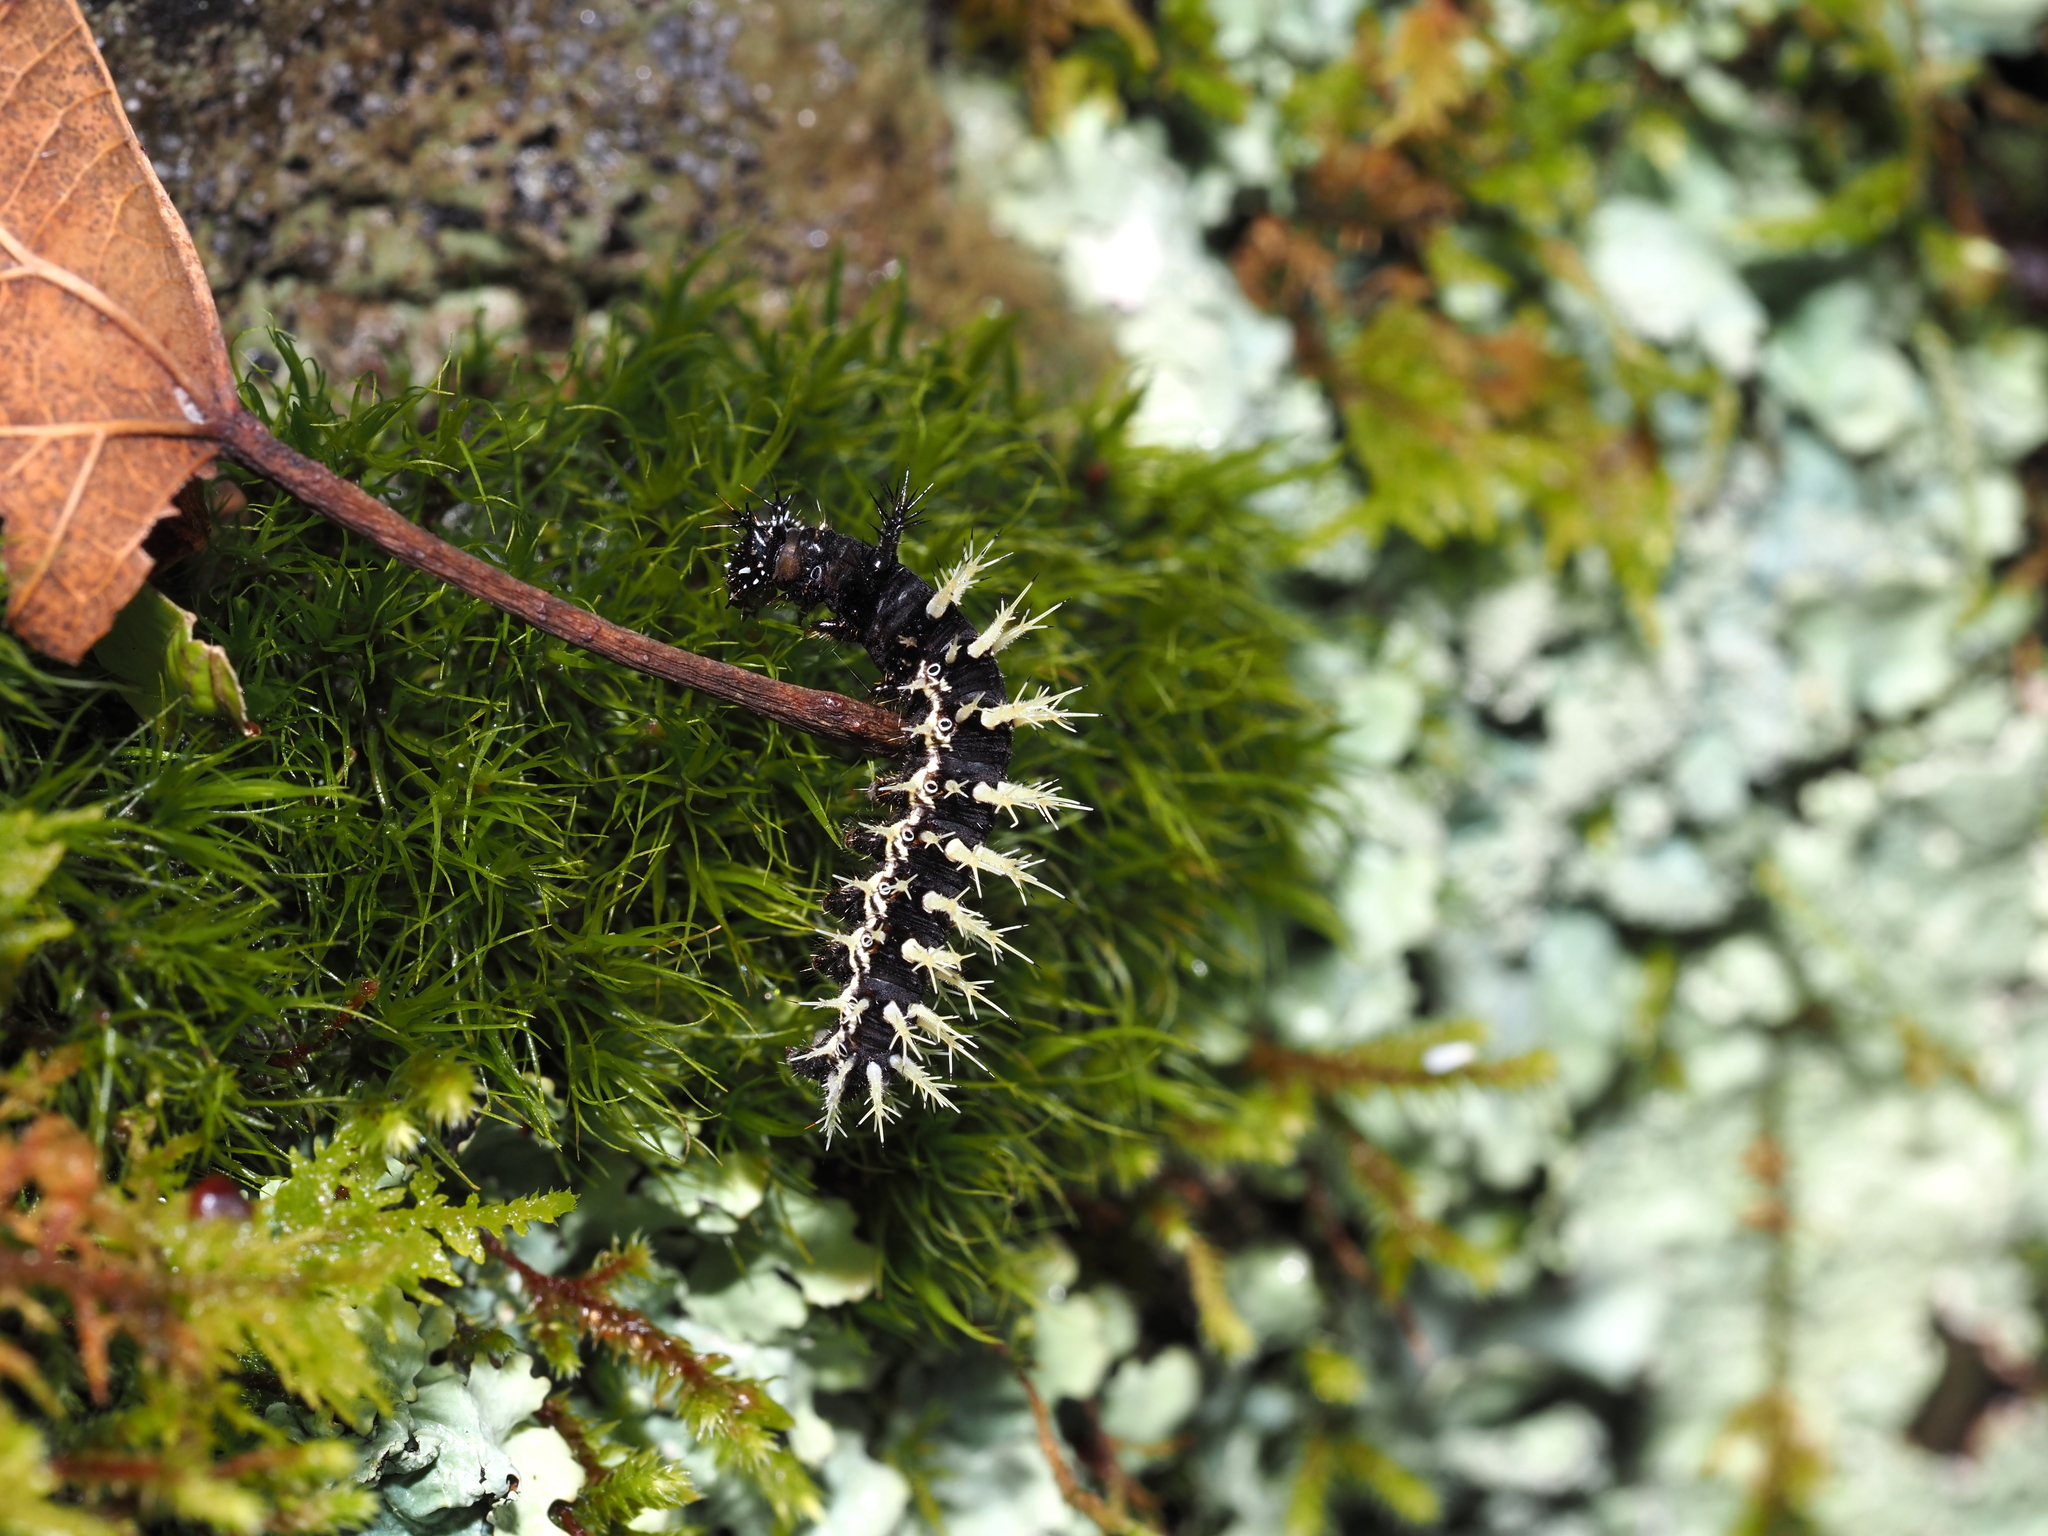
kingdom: Animalia
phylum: Arthropoda
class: Insecta
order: Lepidoptera
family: Nymphalidae
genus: Polygonia
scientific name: Polygonia comma
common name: Eastern comma
